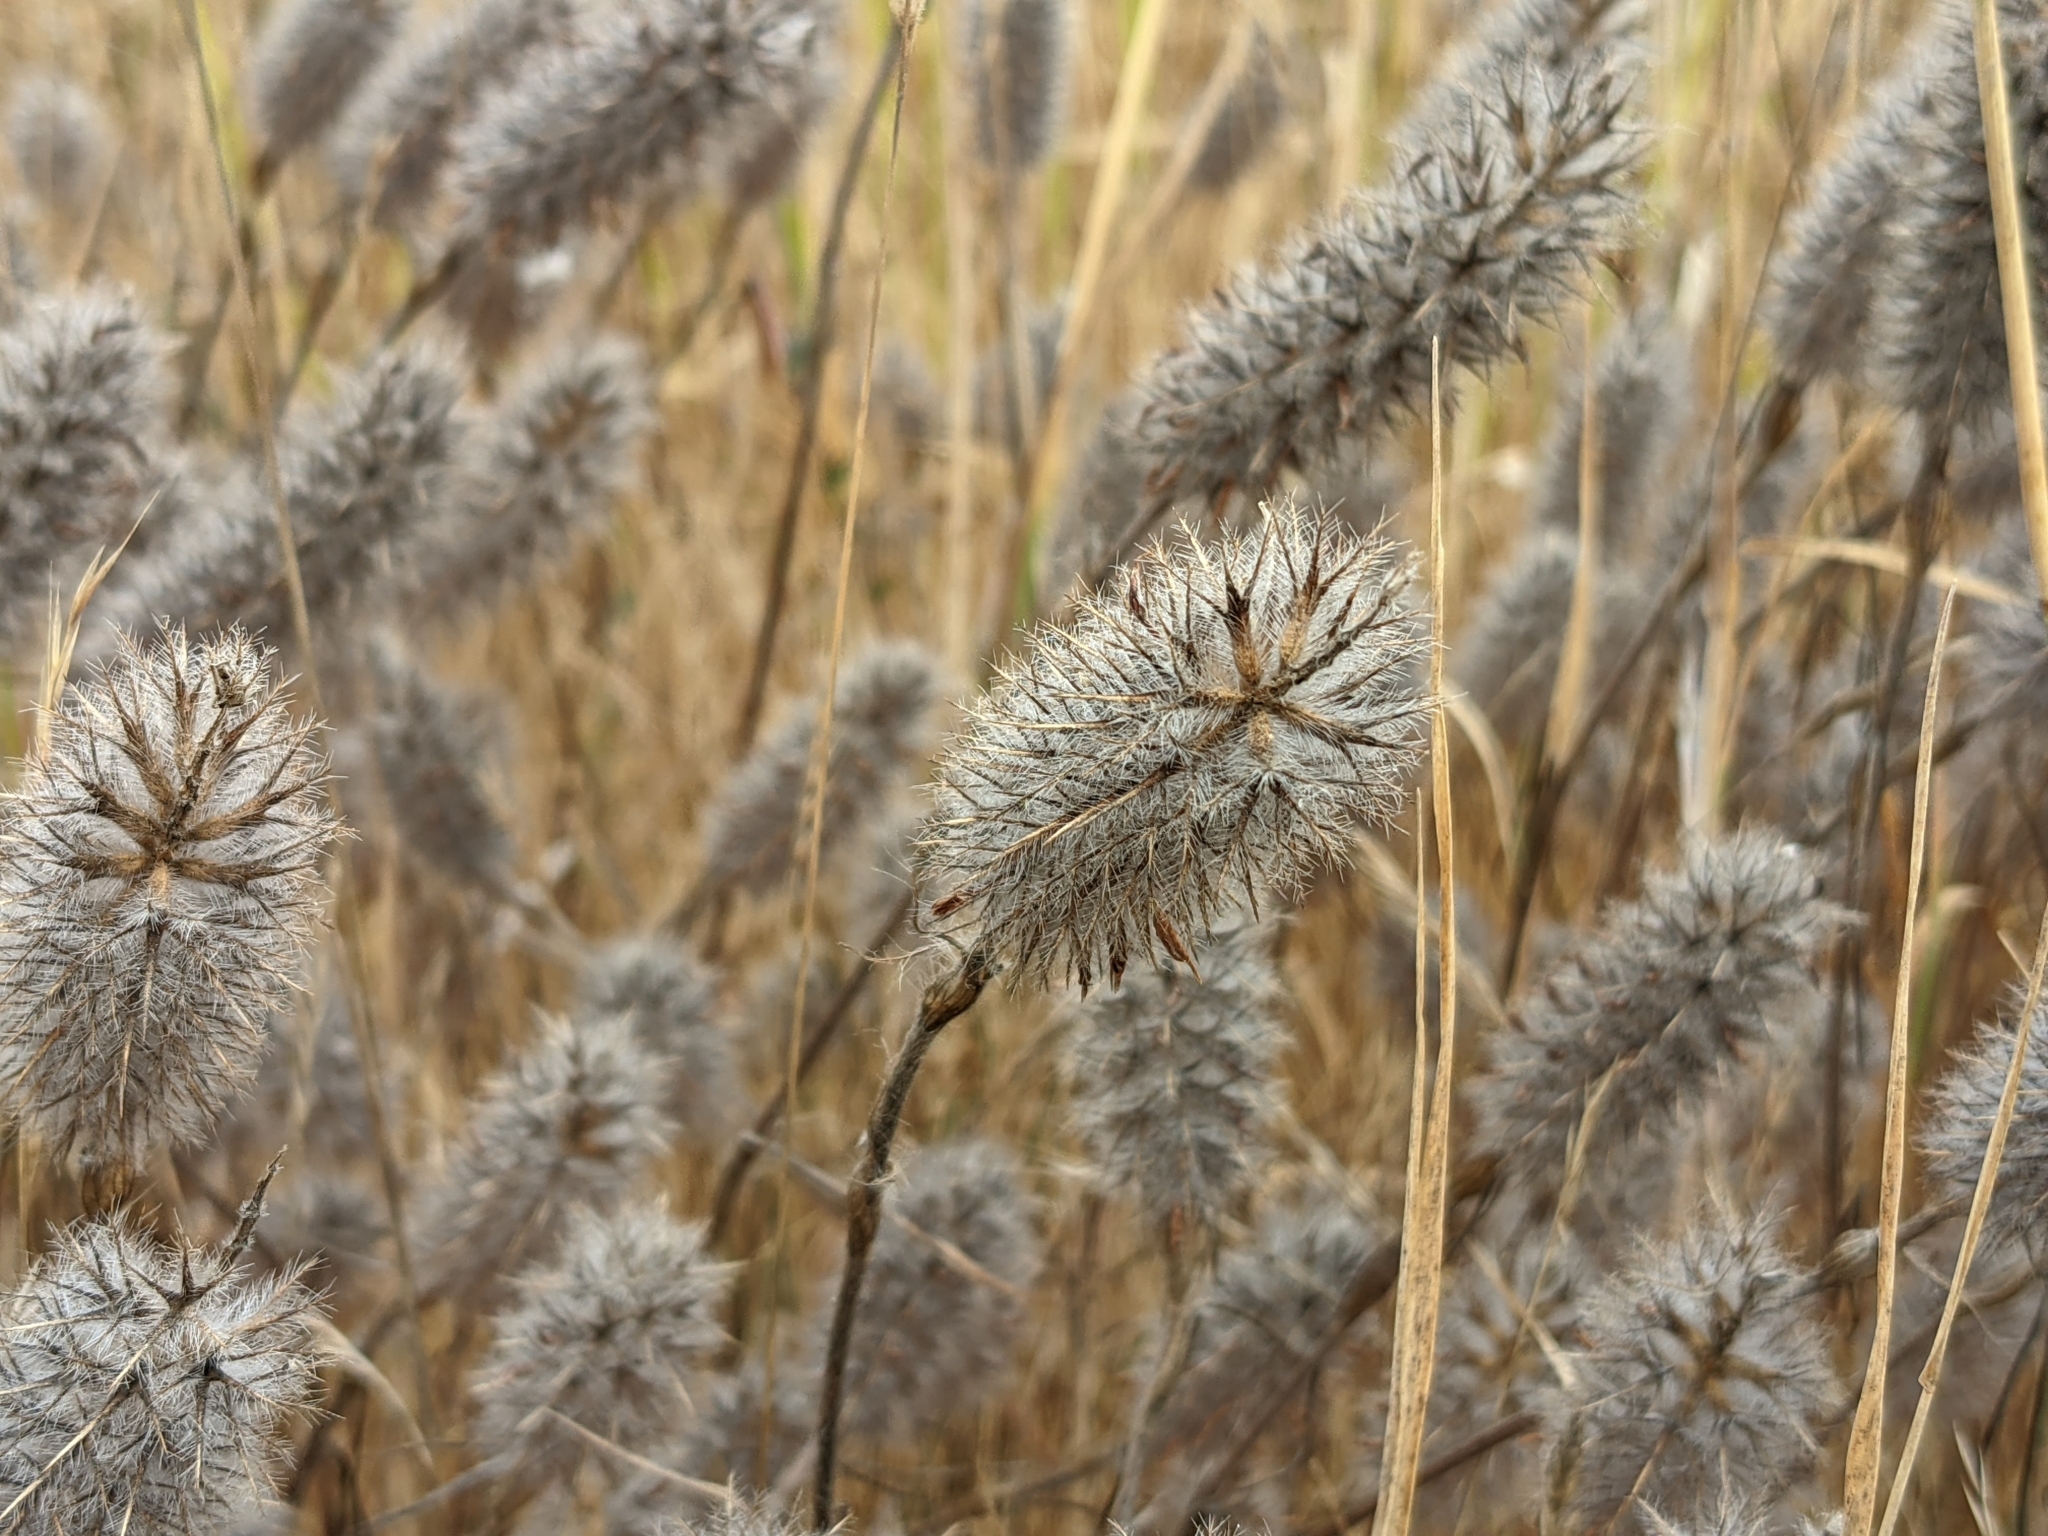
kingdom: Plantae
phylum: Tracheophyta
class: Magnoliopsida
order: Fabales
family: Fabaceae
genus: Trifolium
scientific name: Trifolium angustifolium
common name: Narrow clover
